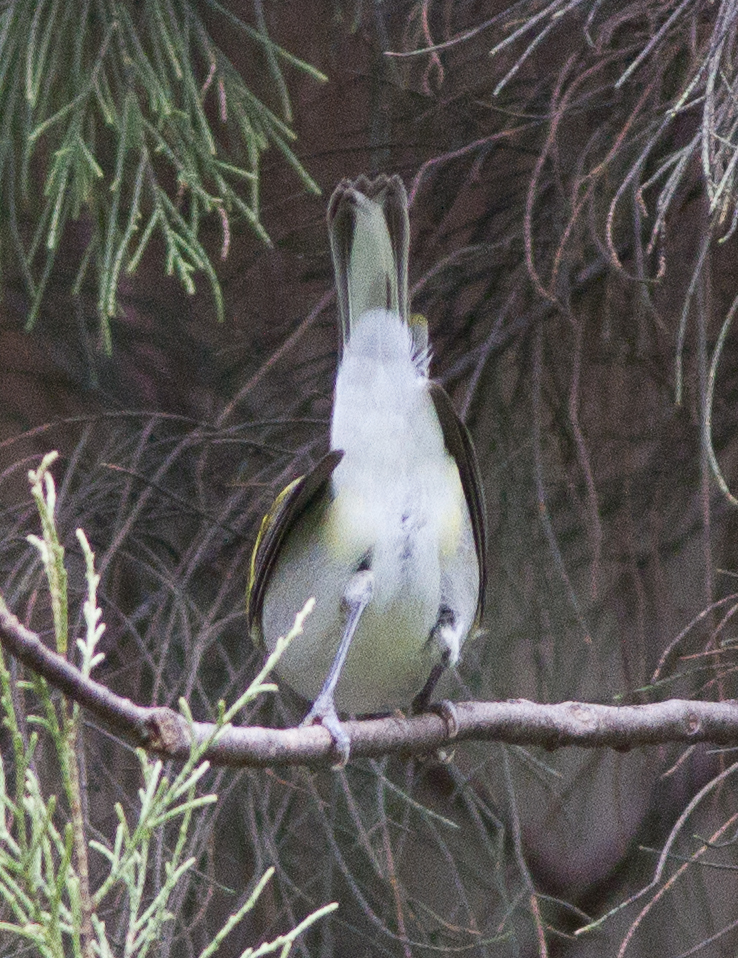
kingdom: Animalia
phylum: Chordata
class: Aves
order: Passeriformes
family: Parulidae
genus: Setophaga
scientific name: Setophaga pensylvanica
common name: Chestnut-sided warbler
